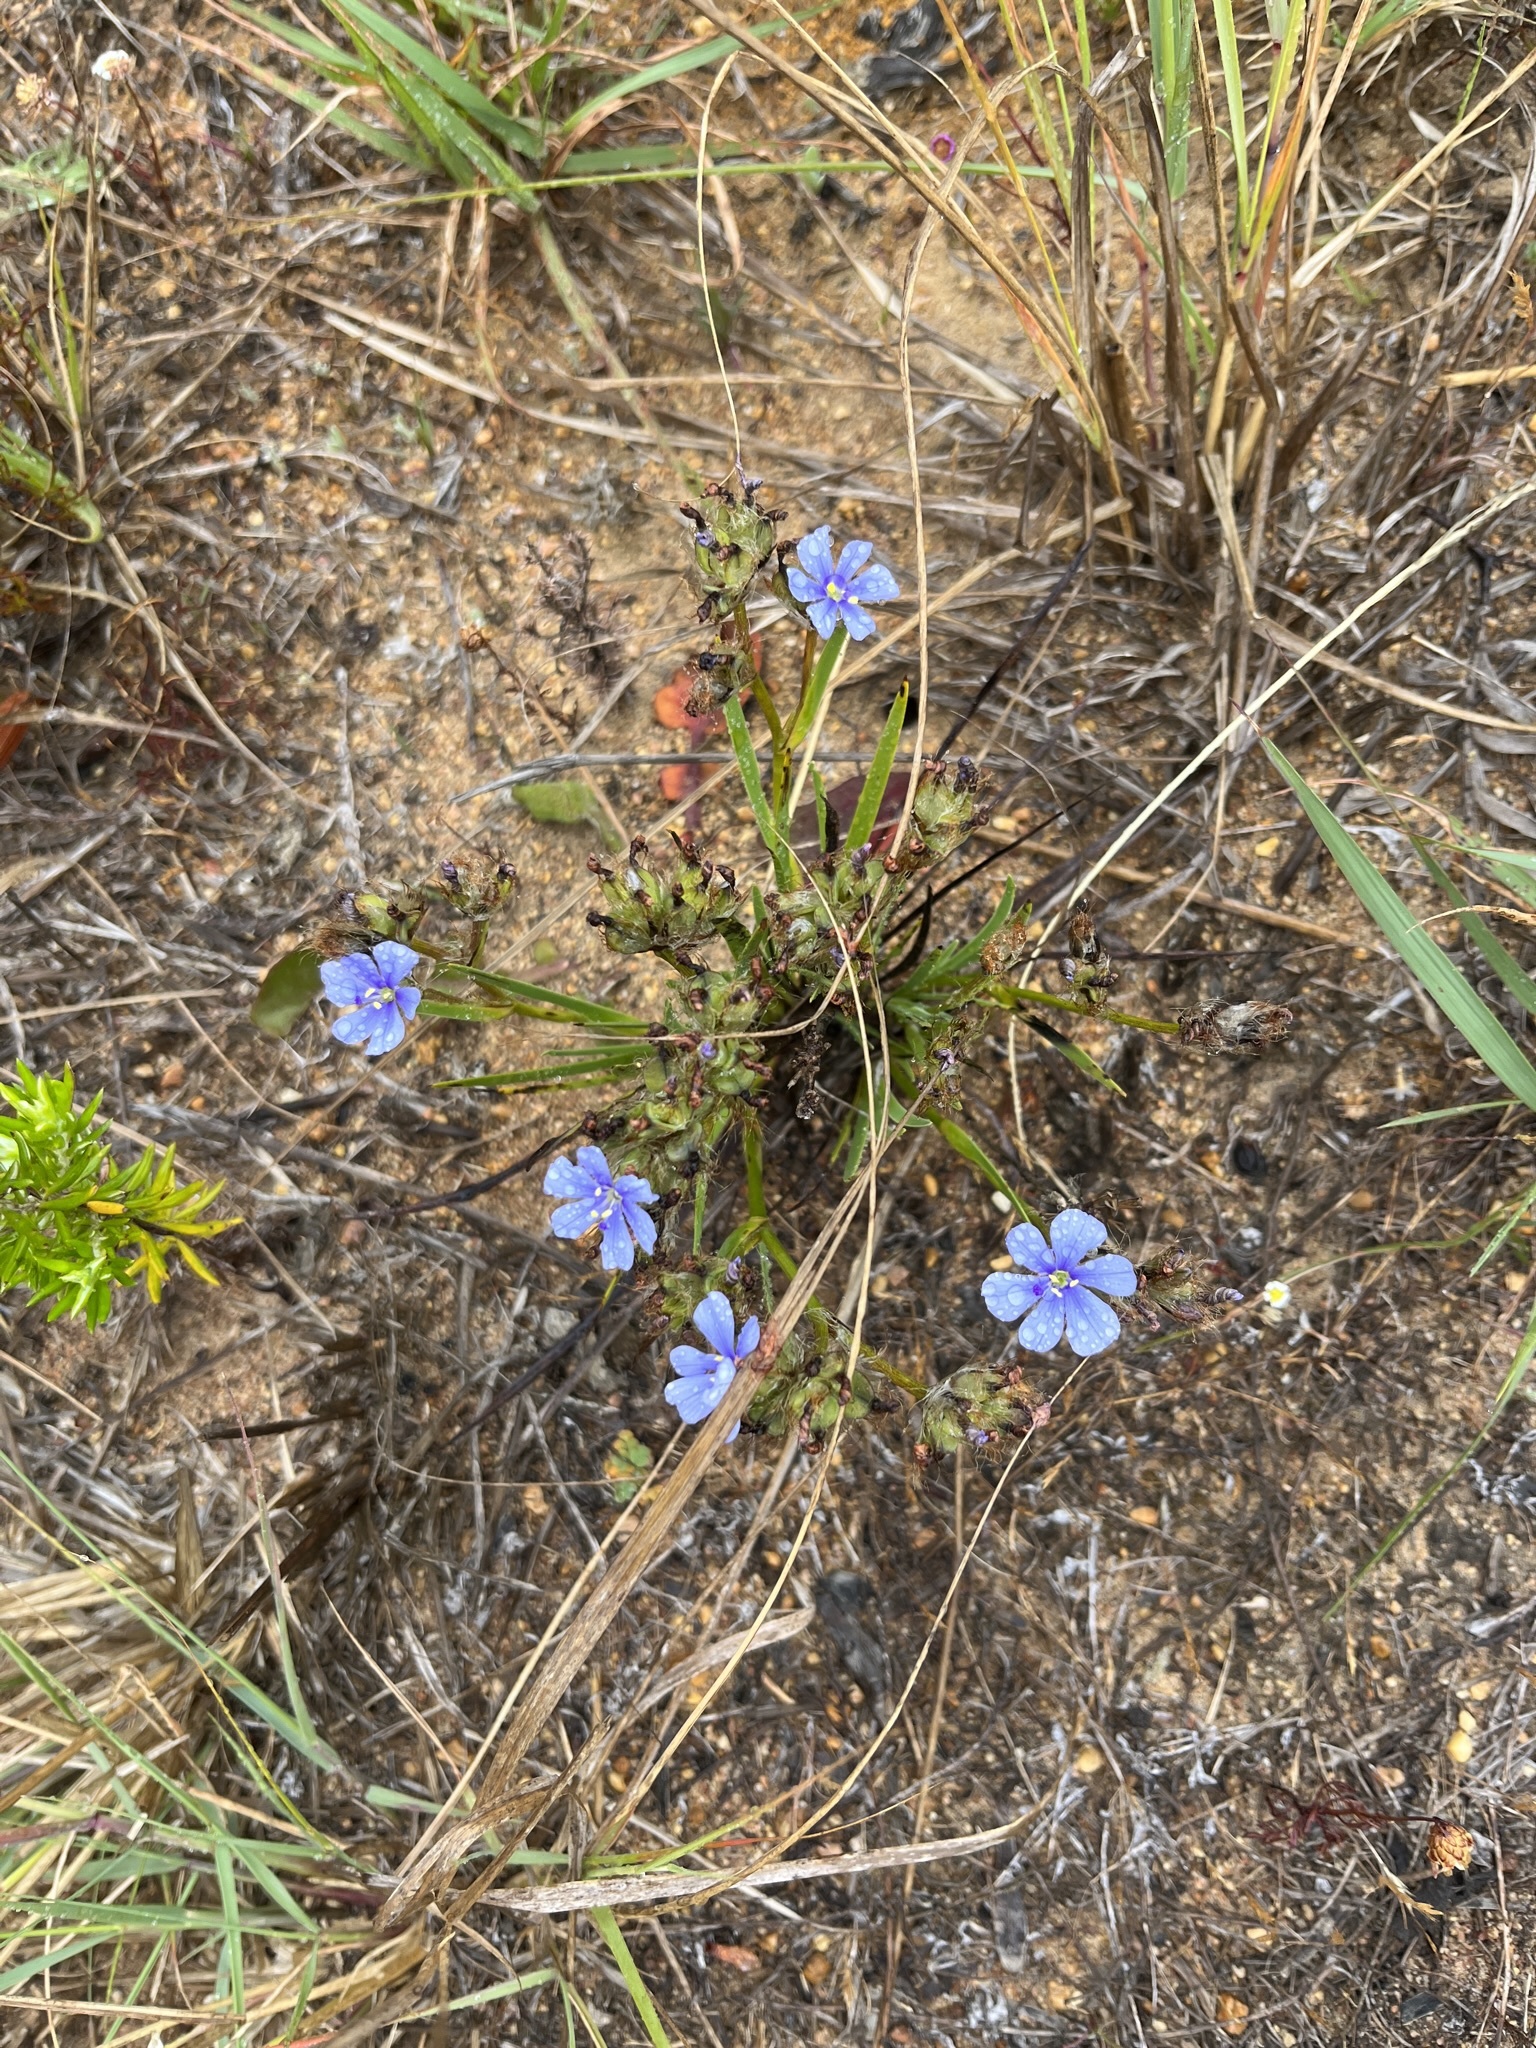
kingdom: Plantae
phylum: Tracheophyta
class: Liliopsida
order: Asparagales
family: Iridaceae
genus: Aristea
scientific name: Aristea africana
